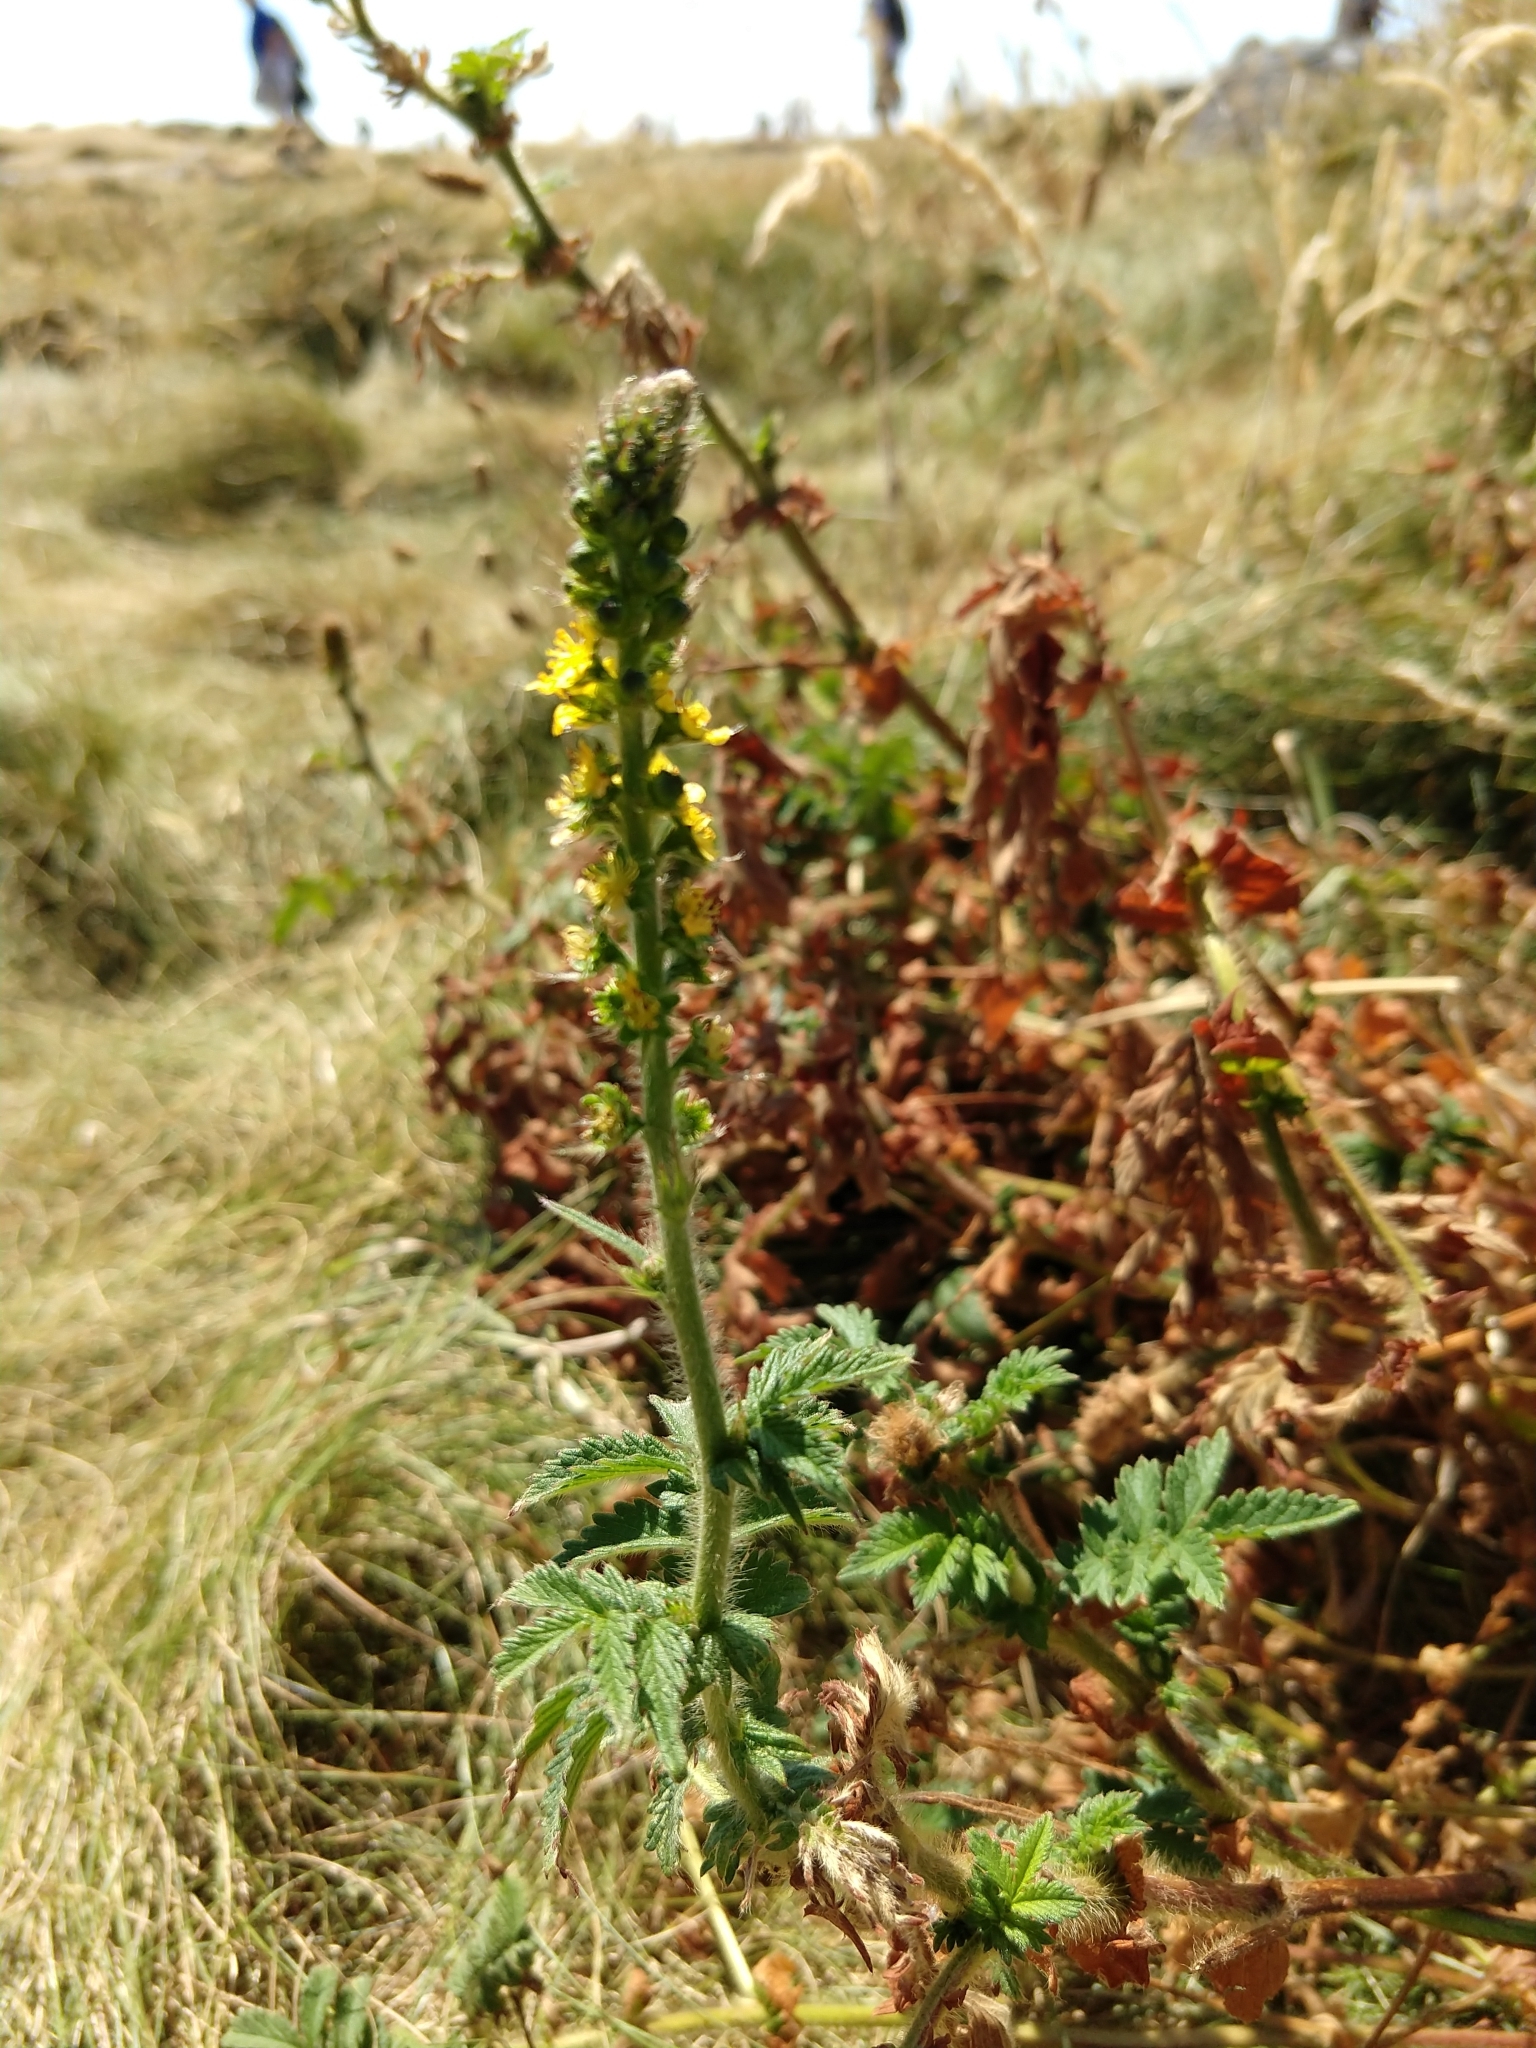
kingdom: Plantae
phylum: Tracheophyta
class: Magnoliopsida
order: Rosales
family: Rosaceae
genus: Agrimonia
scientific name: Agrimonia eupatoria
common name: Agrimony
